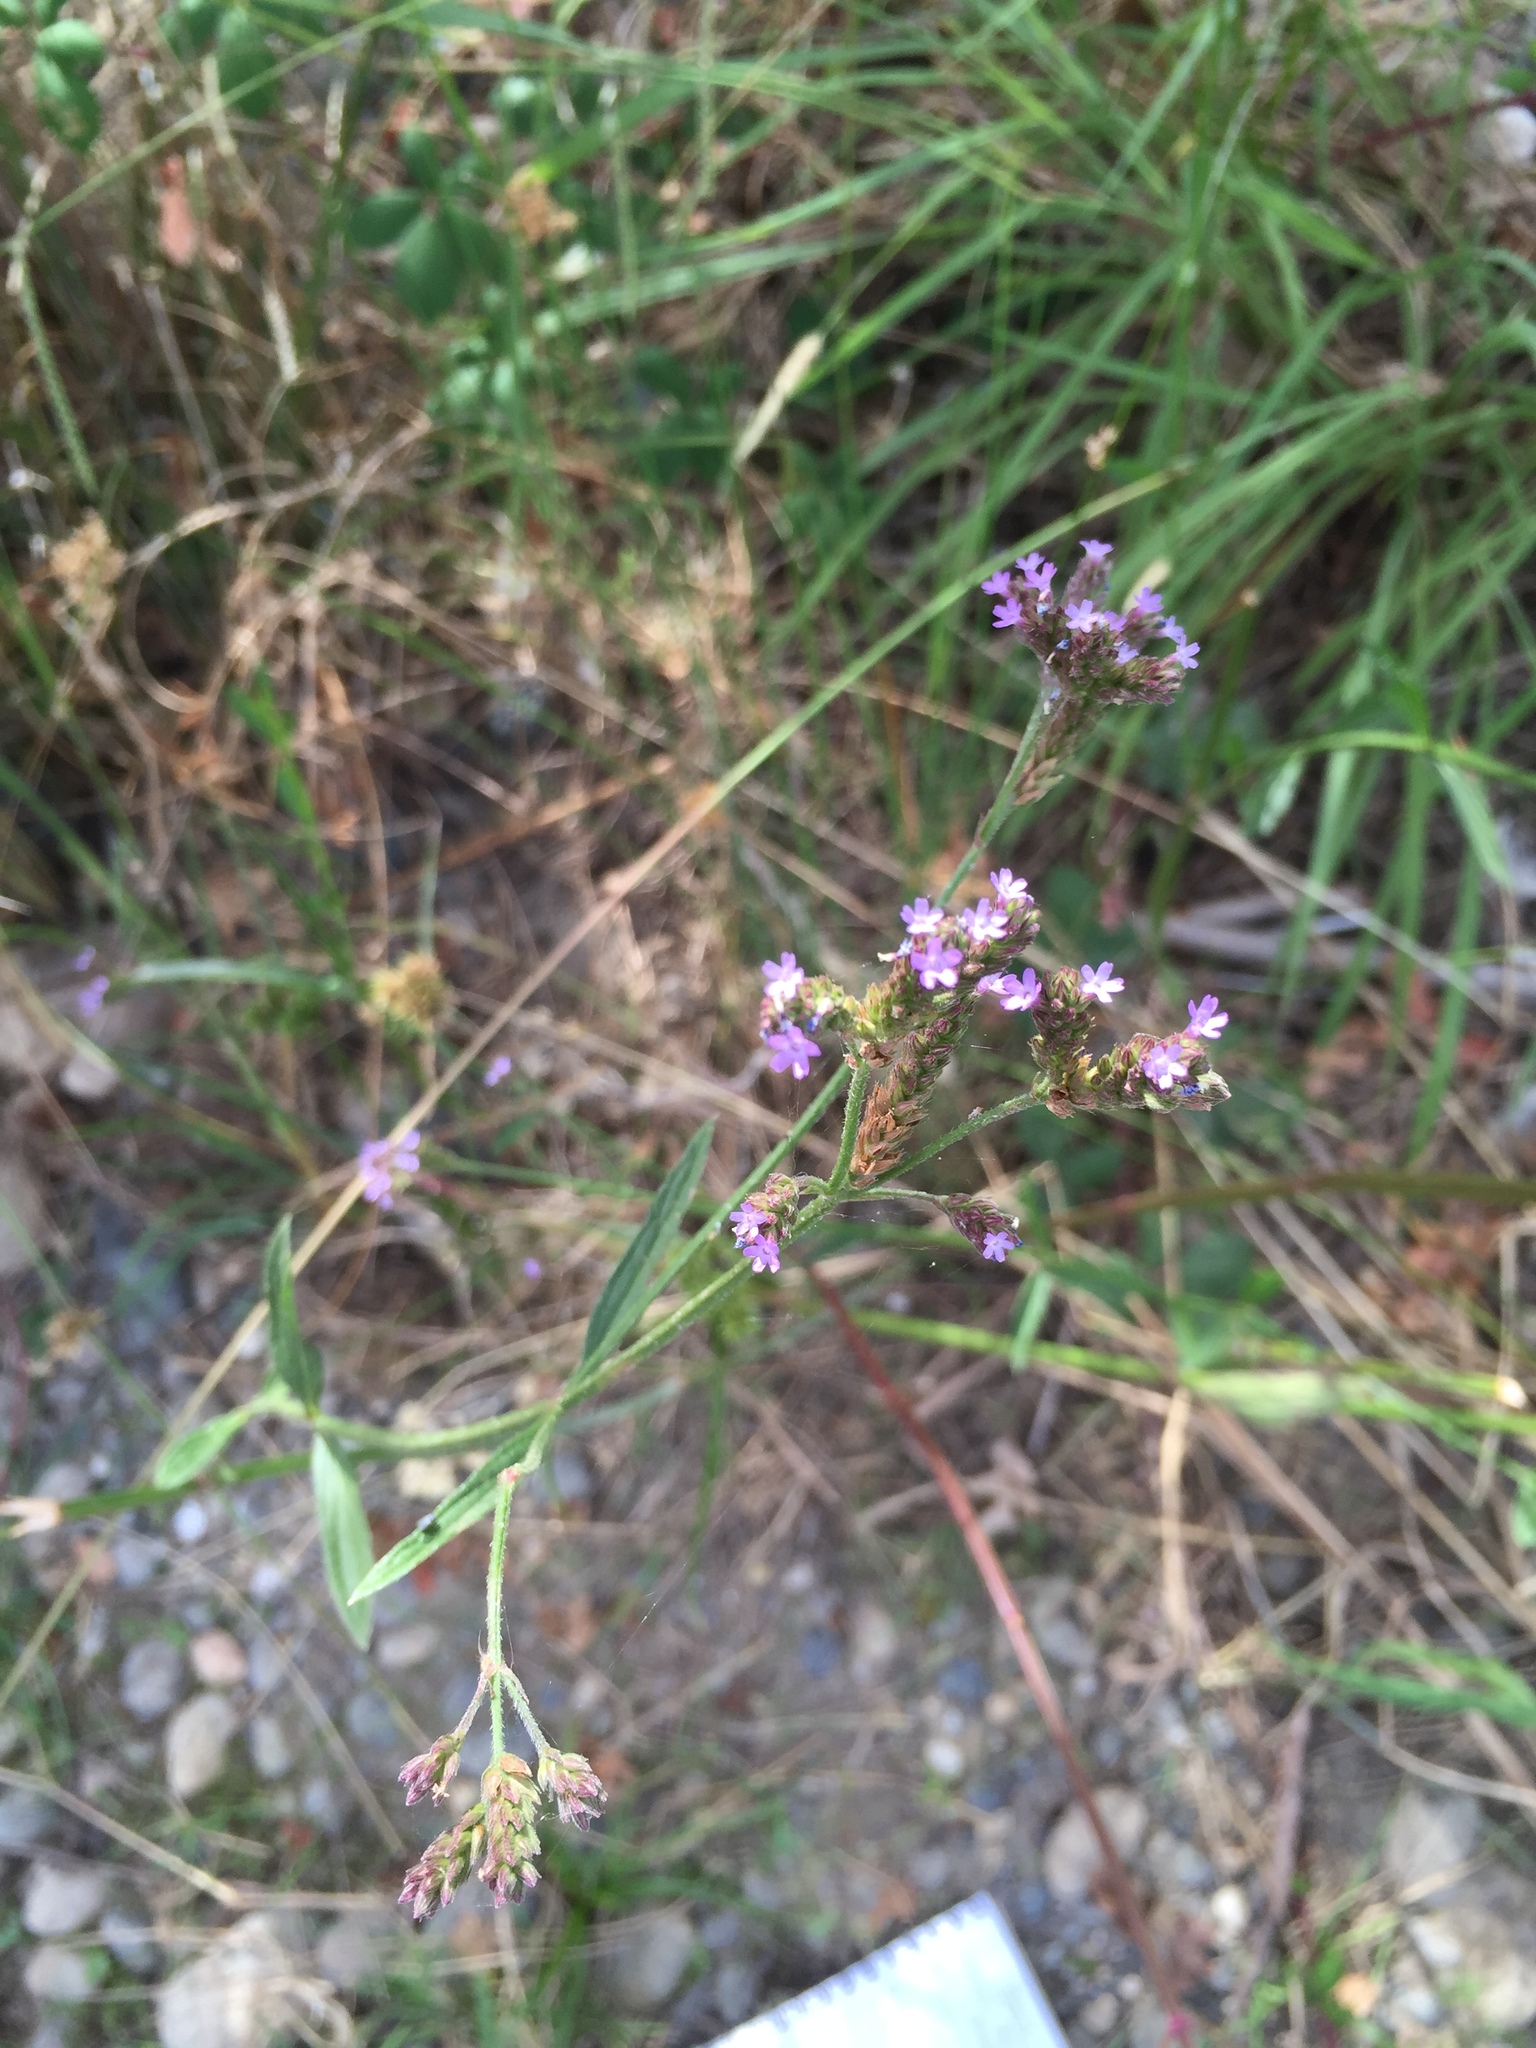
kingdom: Plantae
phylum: Tracheophyta
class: Magnoliopsida
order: Lamiales
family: Verbenaceae
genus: Verbena
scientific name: Verbena brasiliensis
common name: Brazilian vervain
